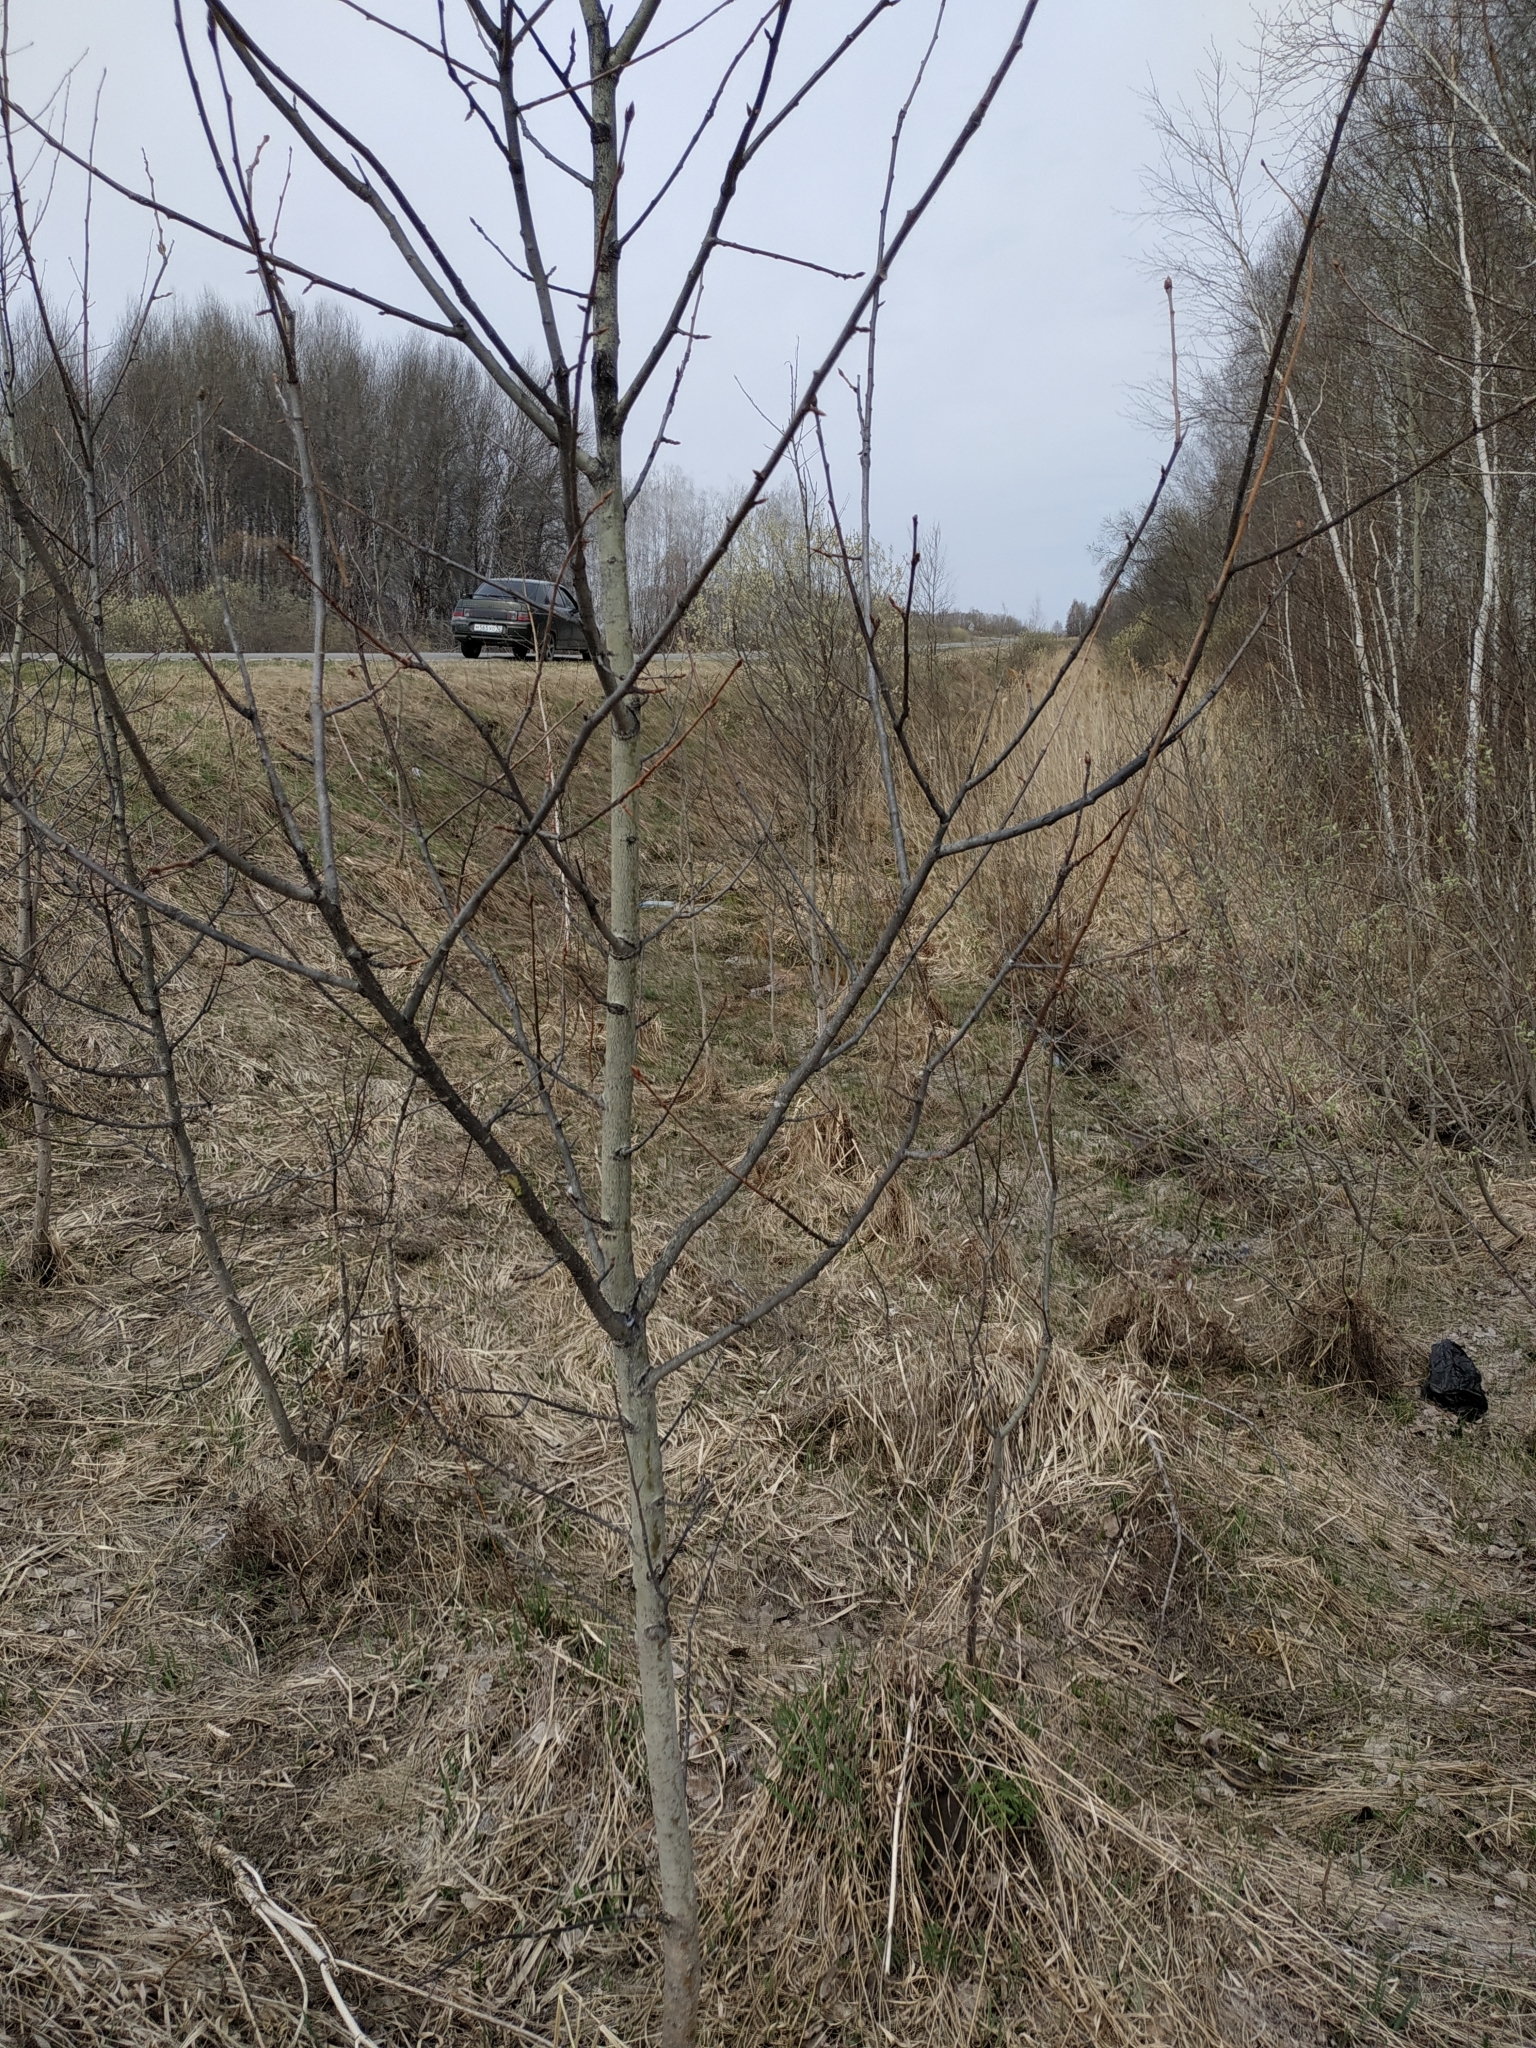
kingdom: Plantae
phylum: Tracheophyta
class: Magnoliopsida
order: Malpighiales
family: Salicaceae
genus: Populus
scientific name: Populus tremula
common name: European aspen
